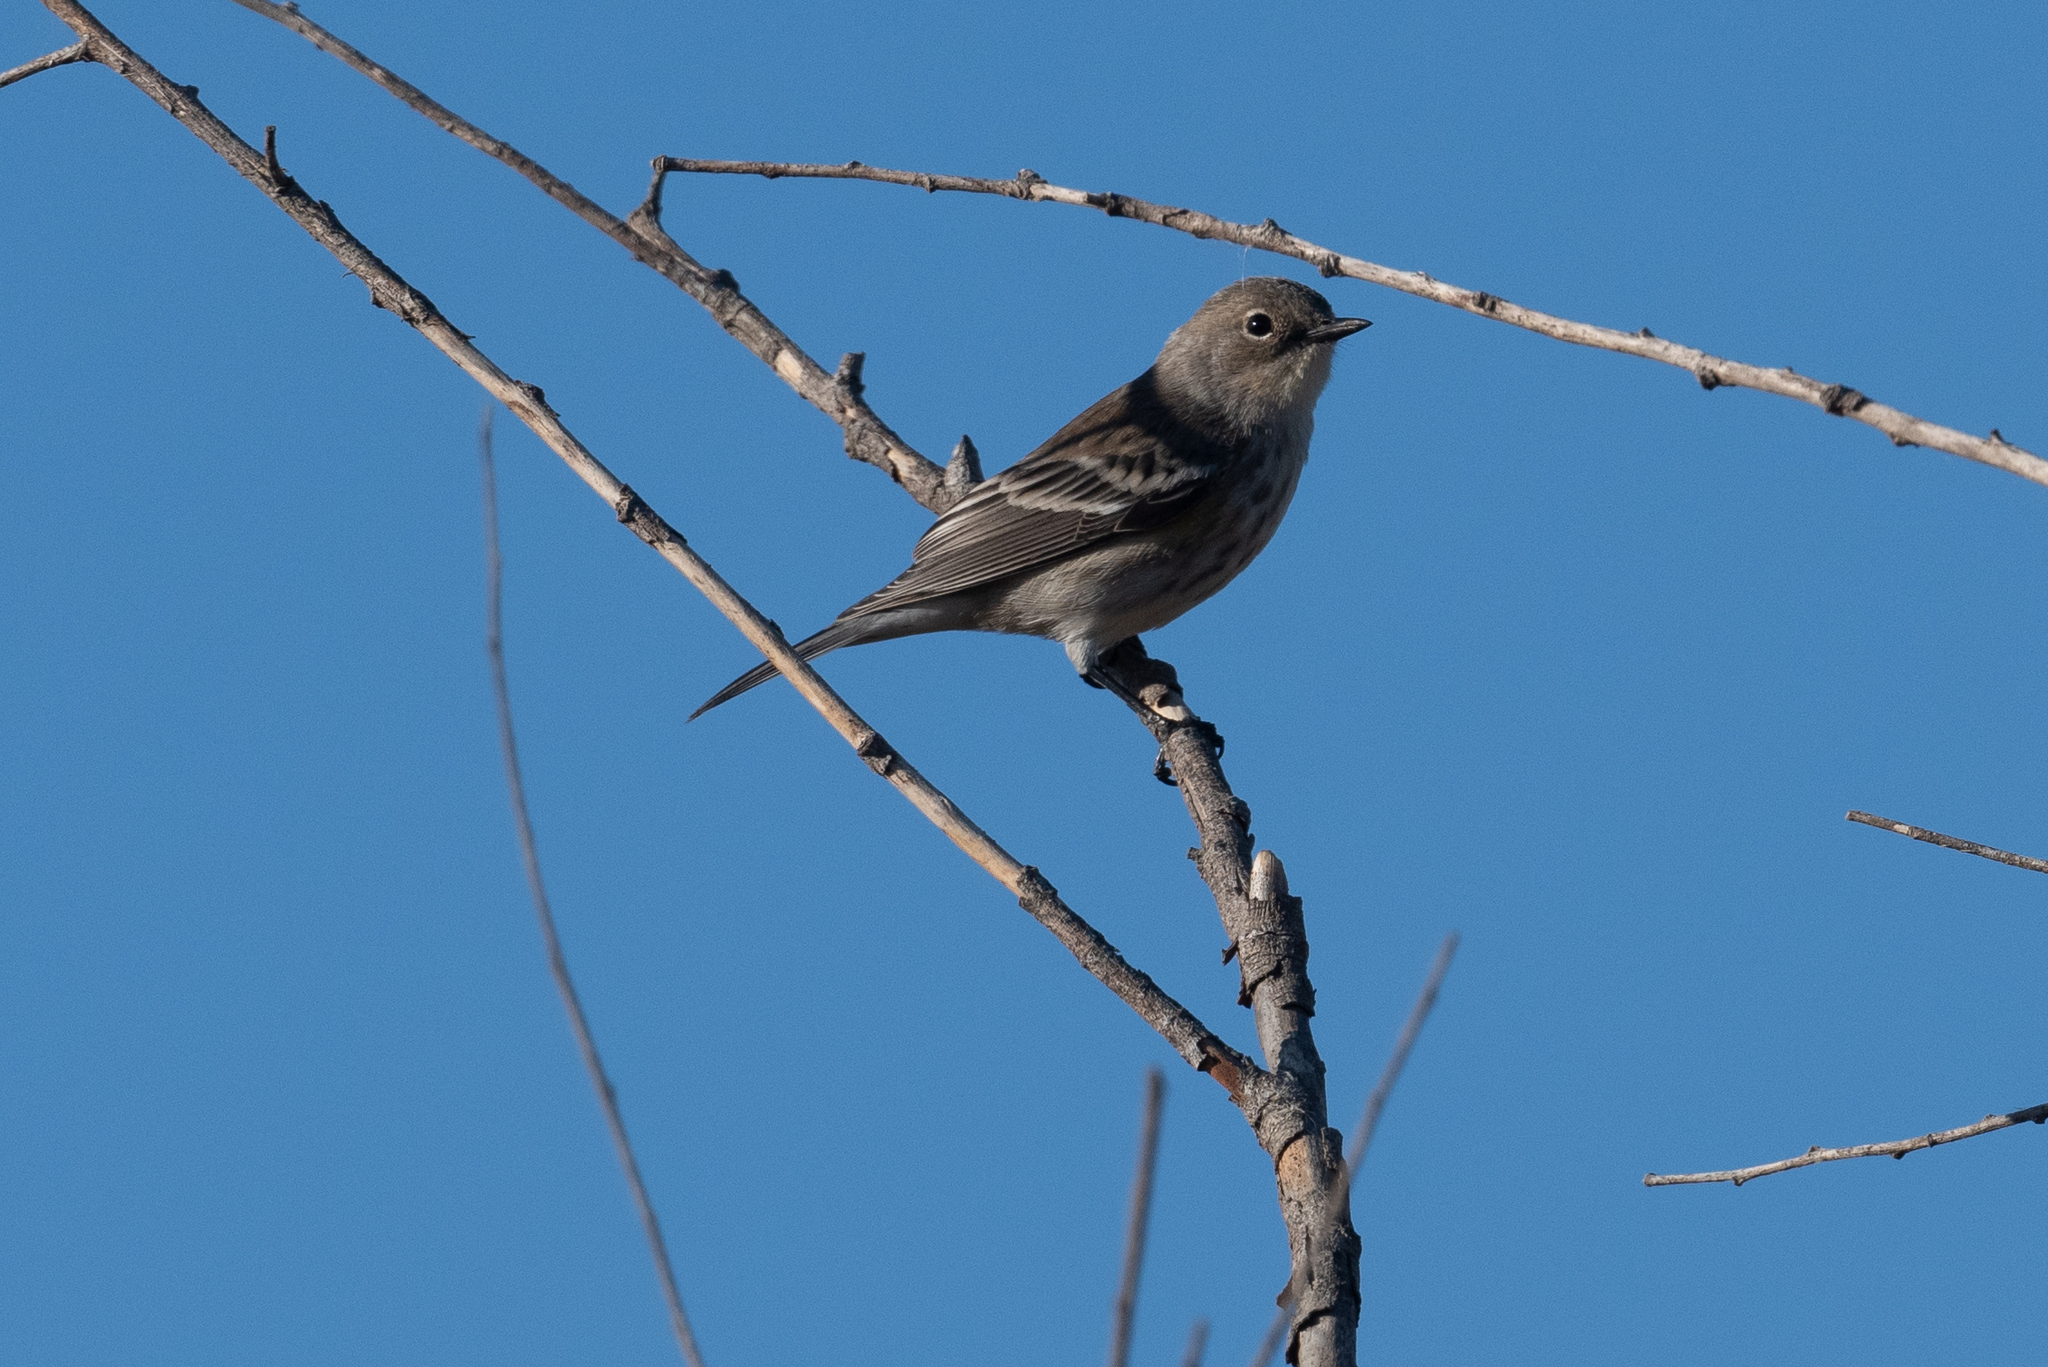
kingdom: Animalia
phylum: Chordata
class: Aves
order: Passeriformes
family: Parulidae
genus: Setophaga
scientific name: Setophaga coronata
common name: Myrtle warbler
